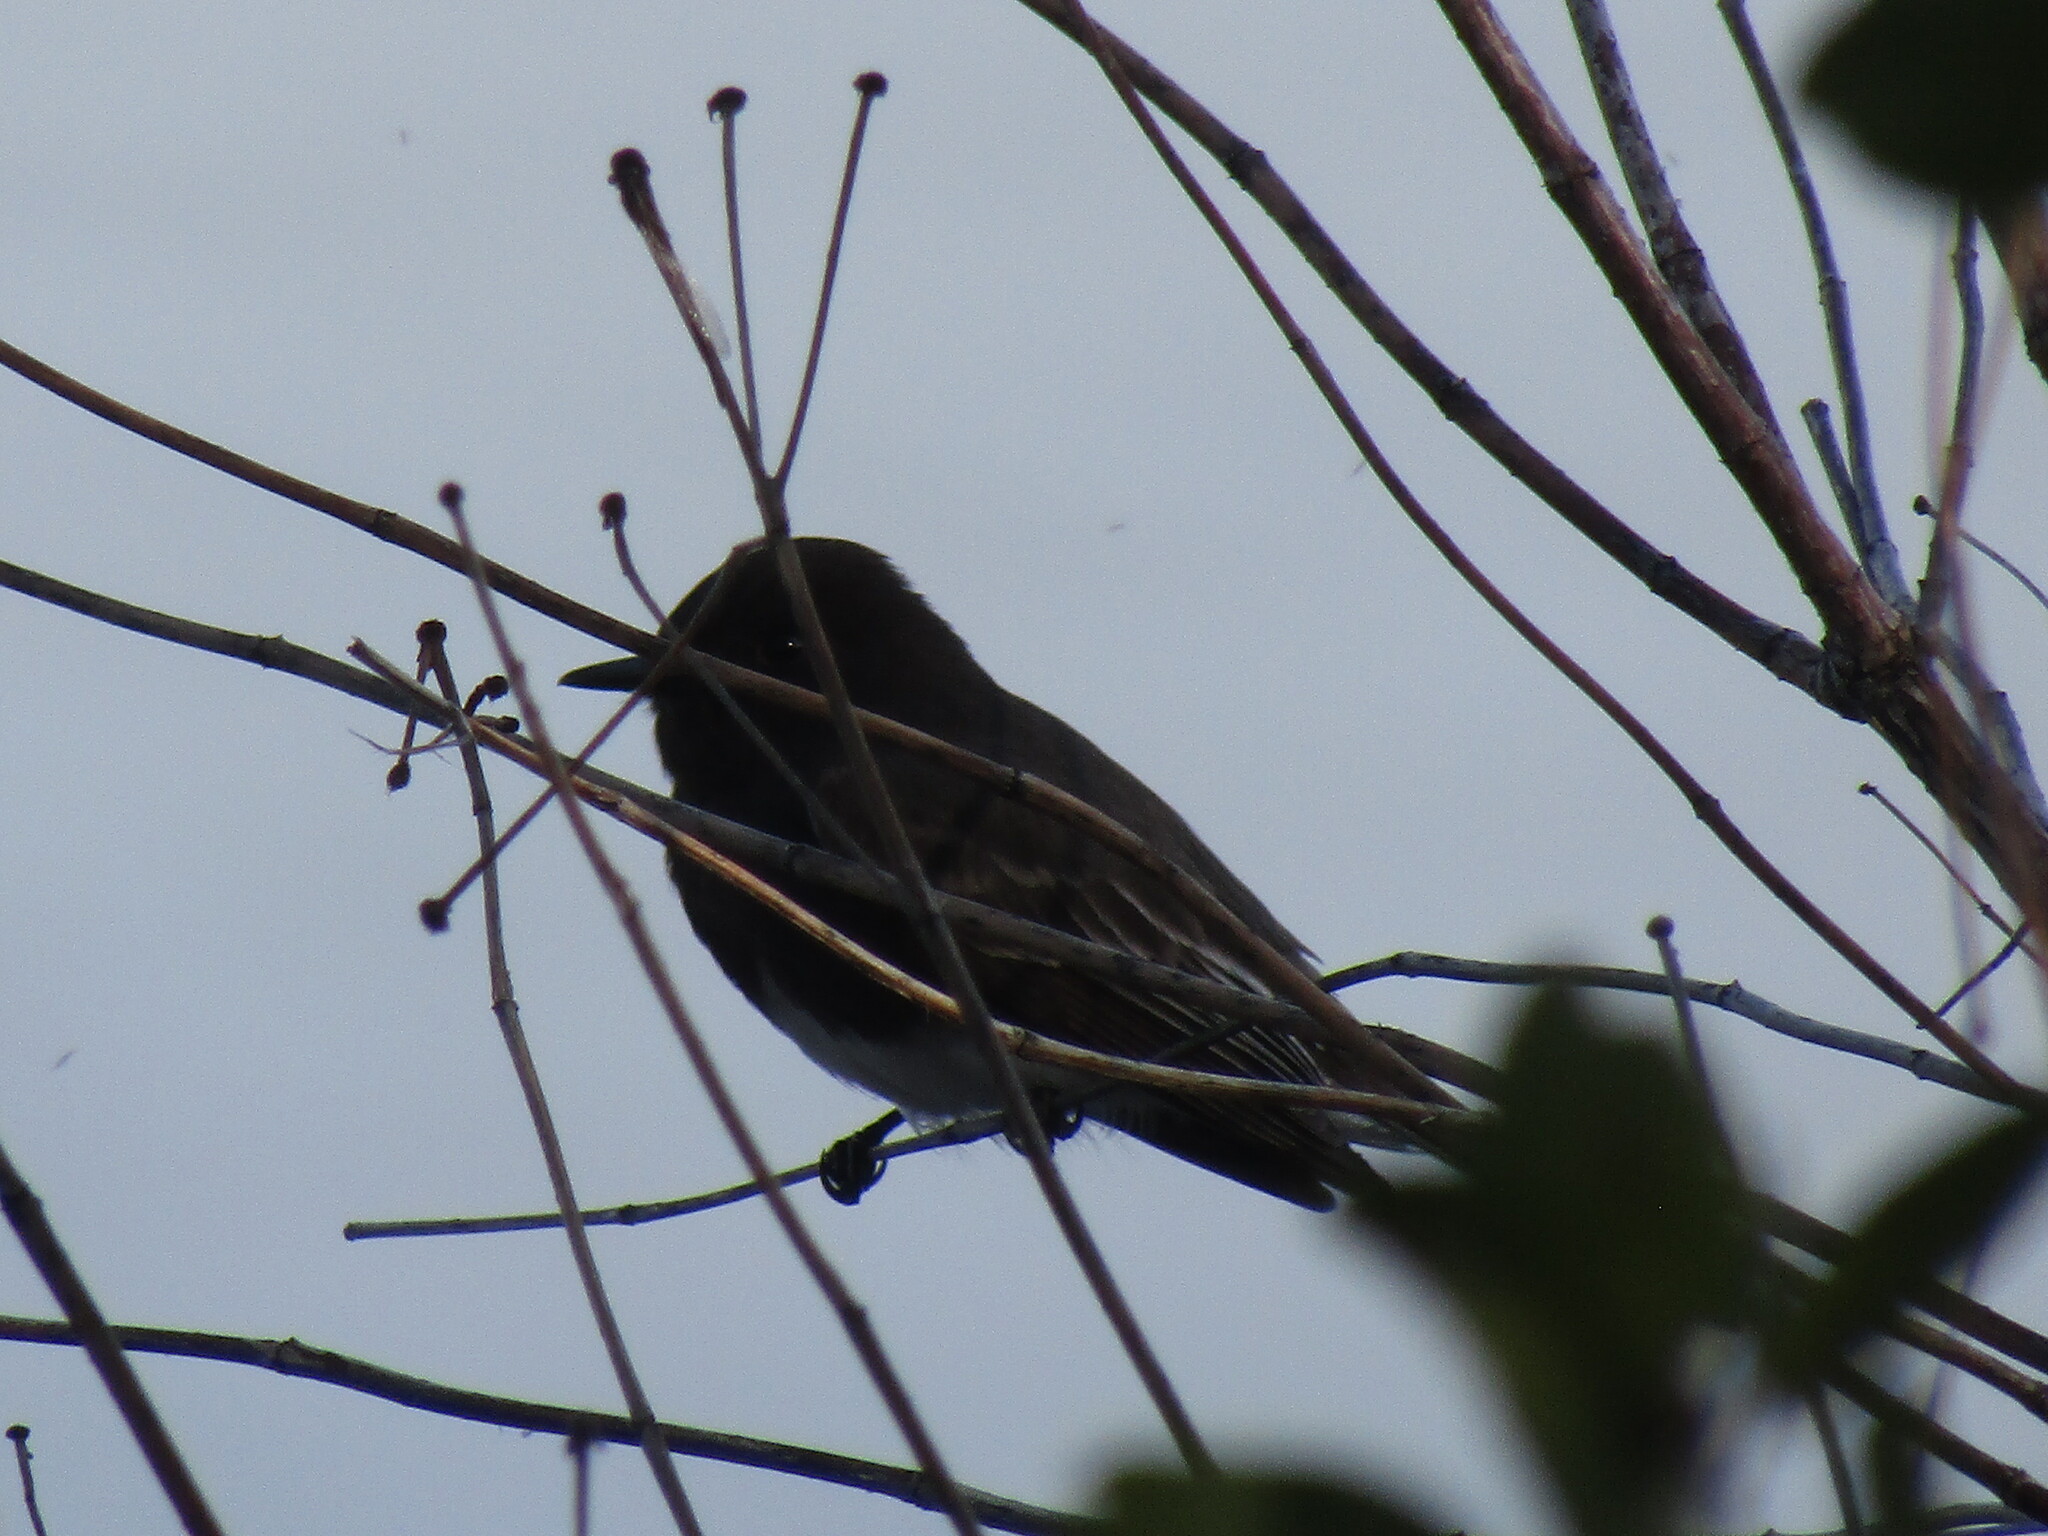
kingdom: Animalia
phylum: Chordata
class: Aves
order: Passeriformes
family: Tyrannidae
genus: Sayornis
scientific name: Sayornis nigricans
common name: Black phoebe
